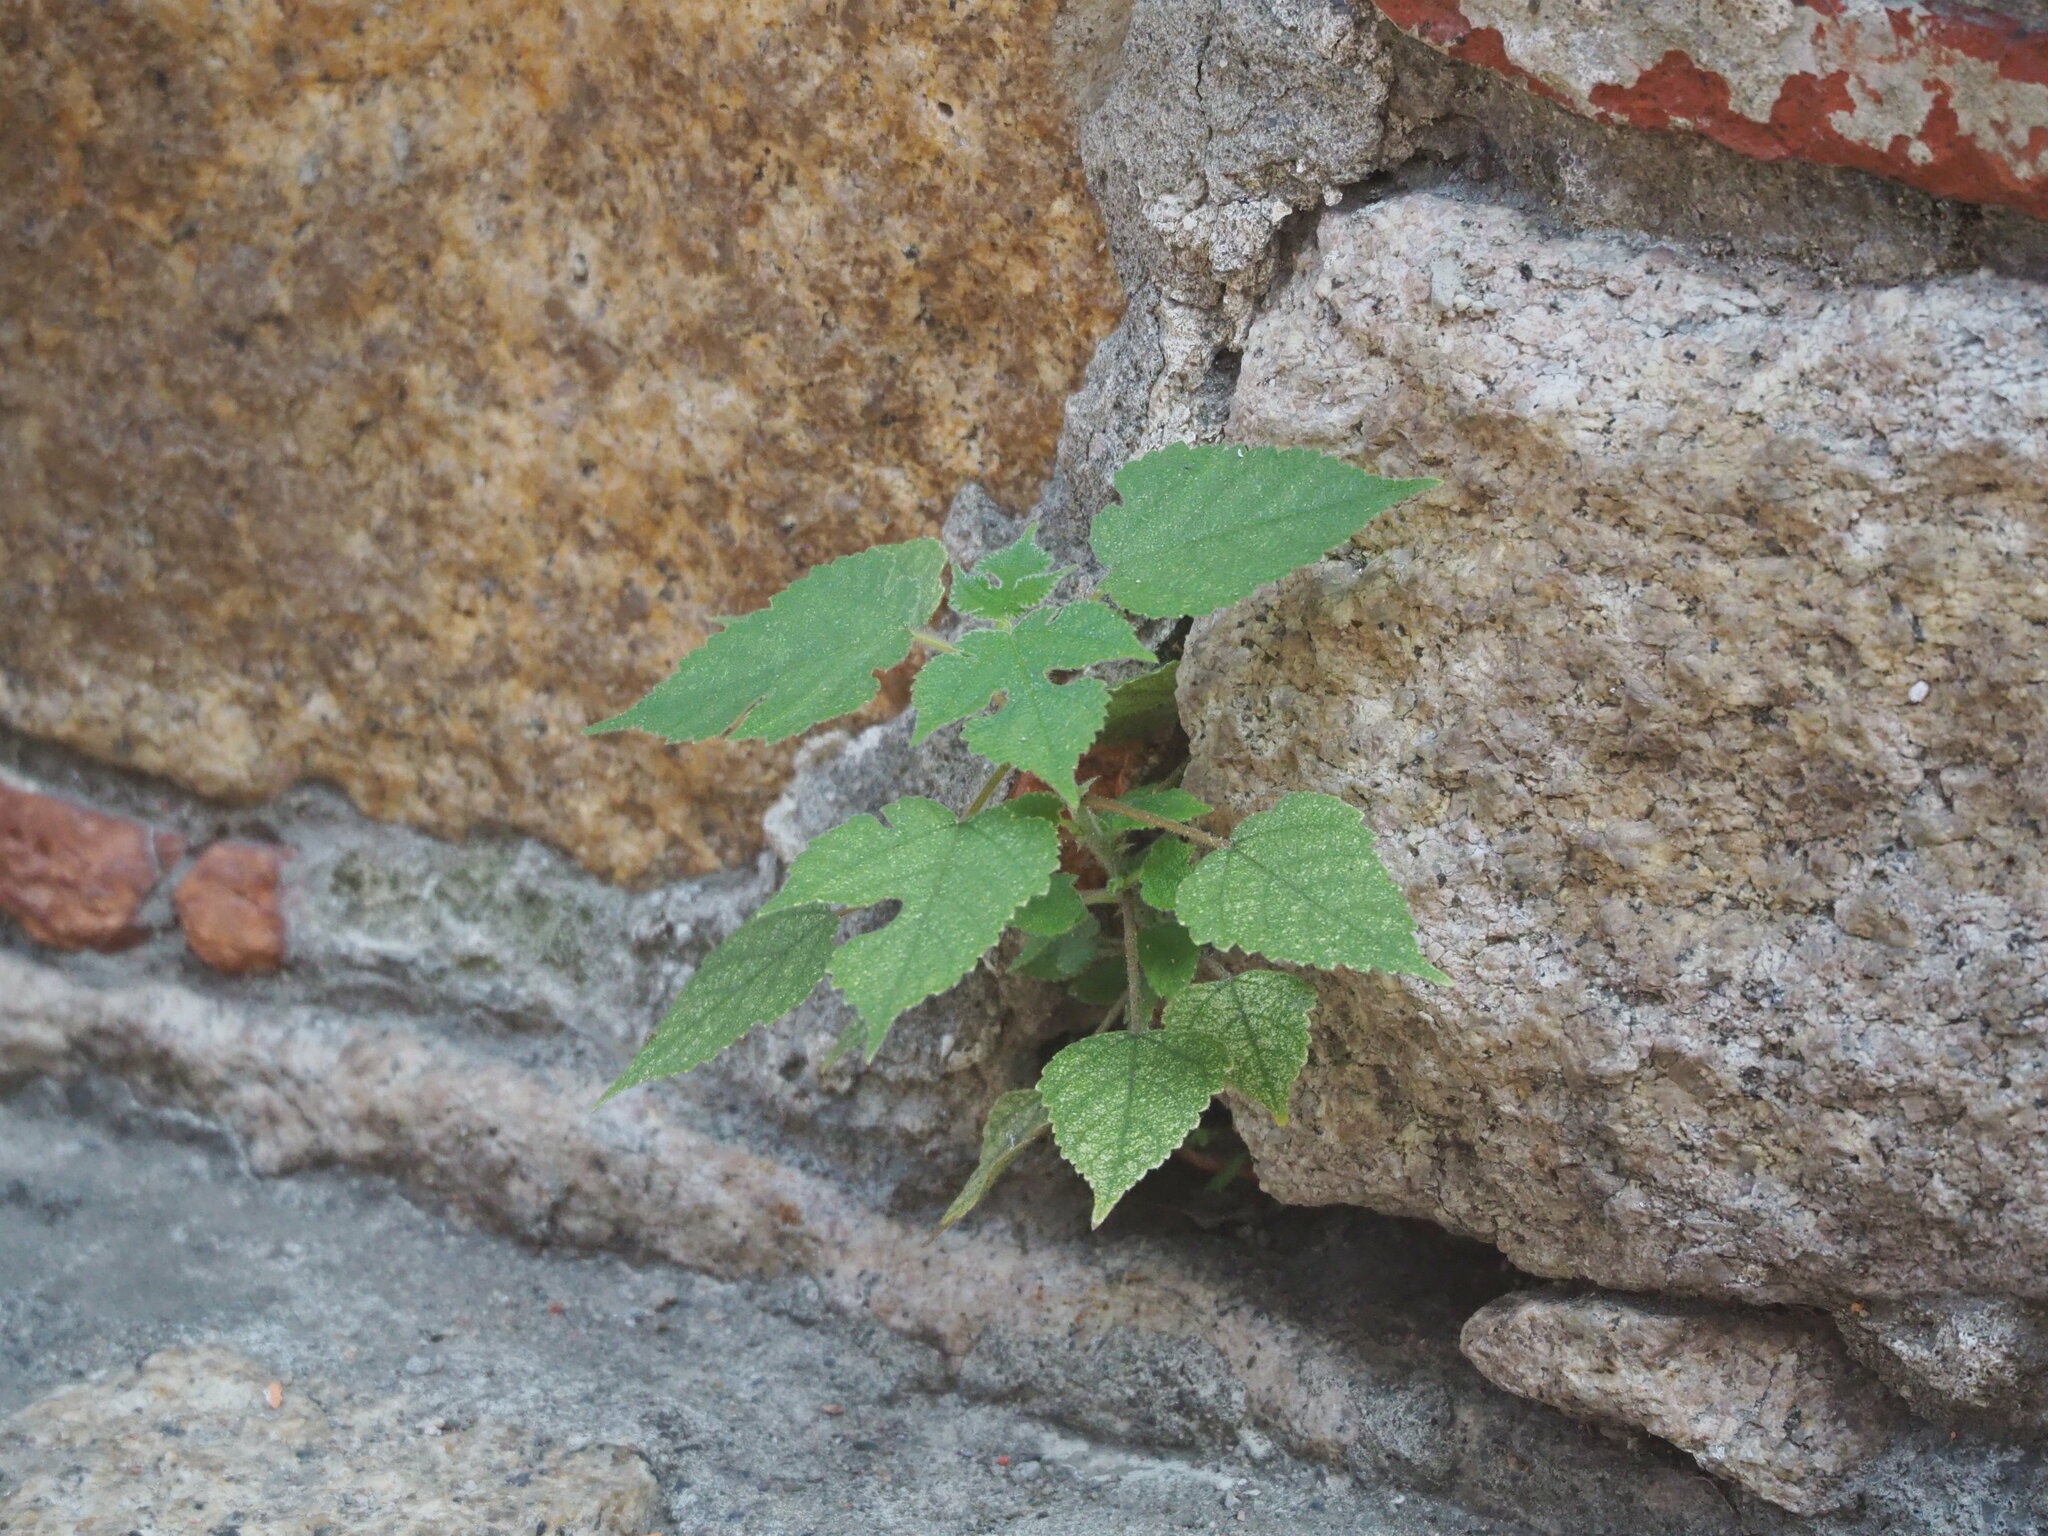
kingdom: Plantae
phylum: Tracheophyta
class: Magnoliopsida
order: Rosales
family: Moraceae
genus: Broussonetia
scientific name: Broussonetia papyrifera
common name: Paper mulberry
